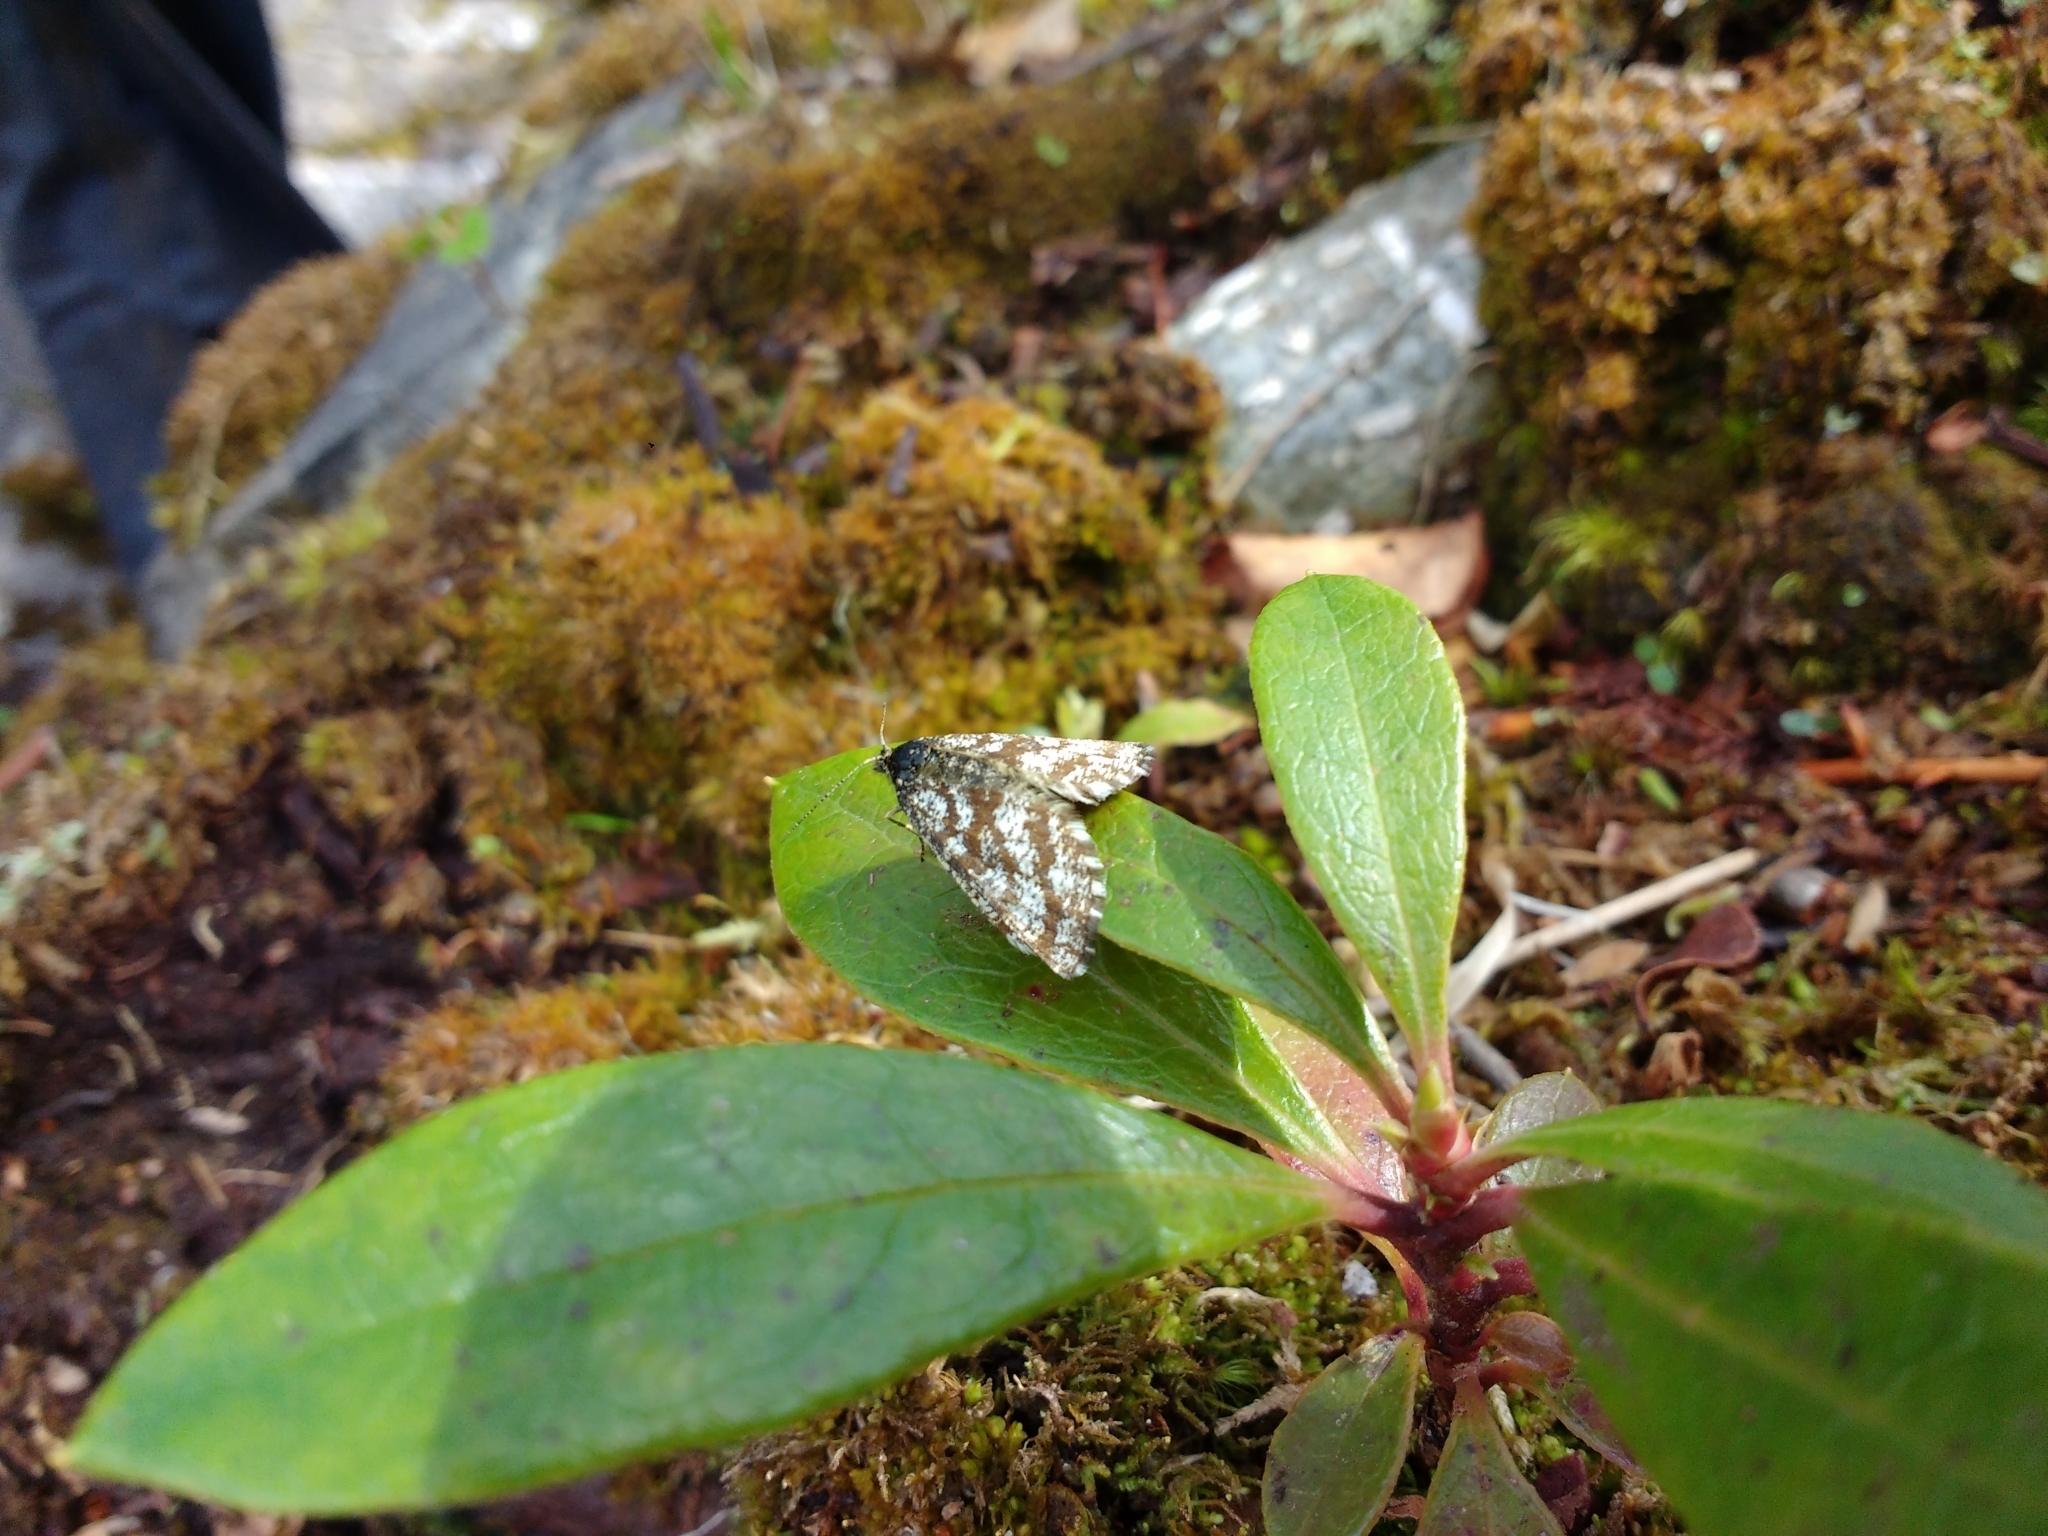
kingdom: Animalia
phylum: Arthropoda
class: Insecta
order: Lepidoptera
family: Geometridae
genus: Ematurga
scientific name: Ematurga atomaria
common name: Common heath
